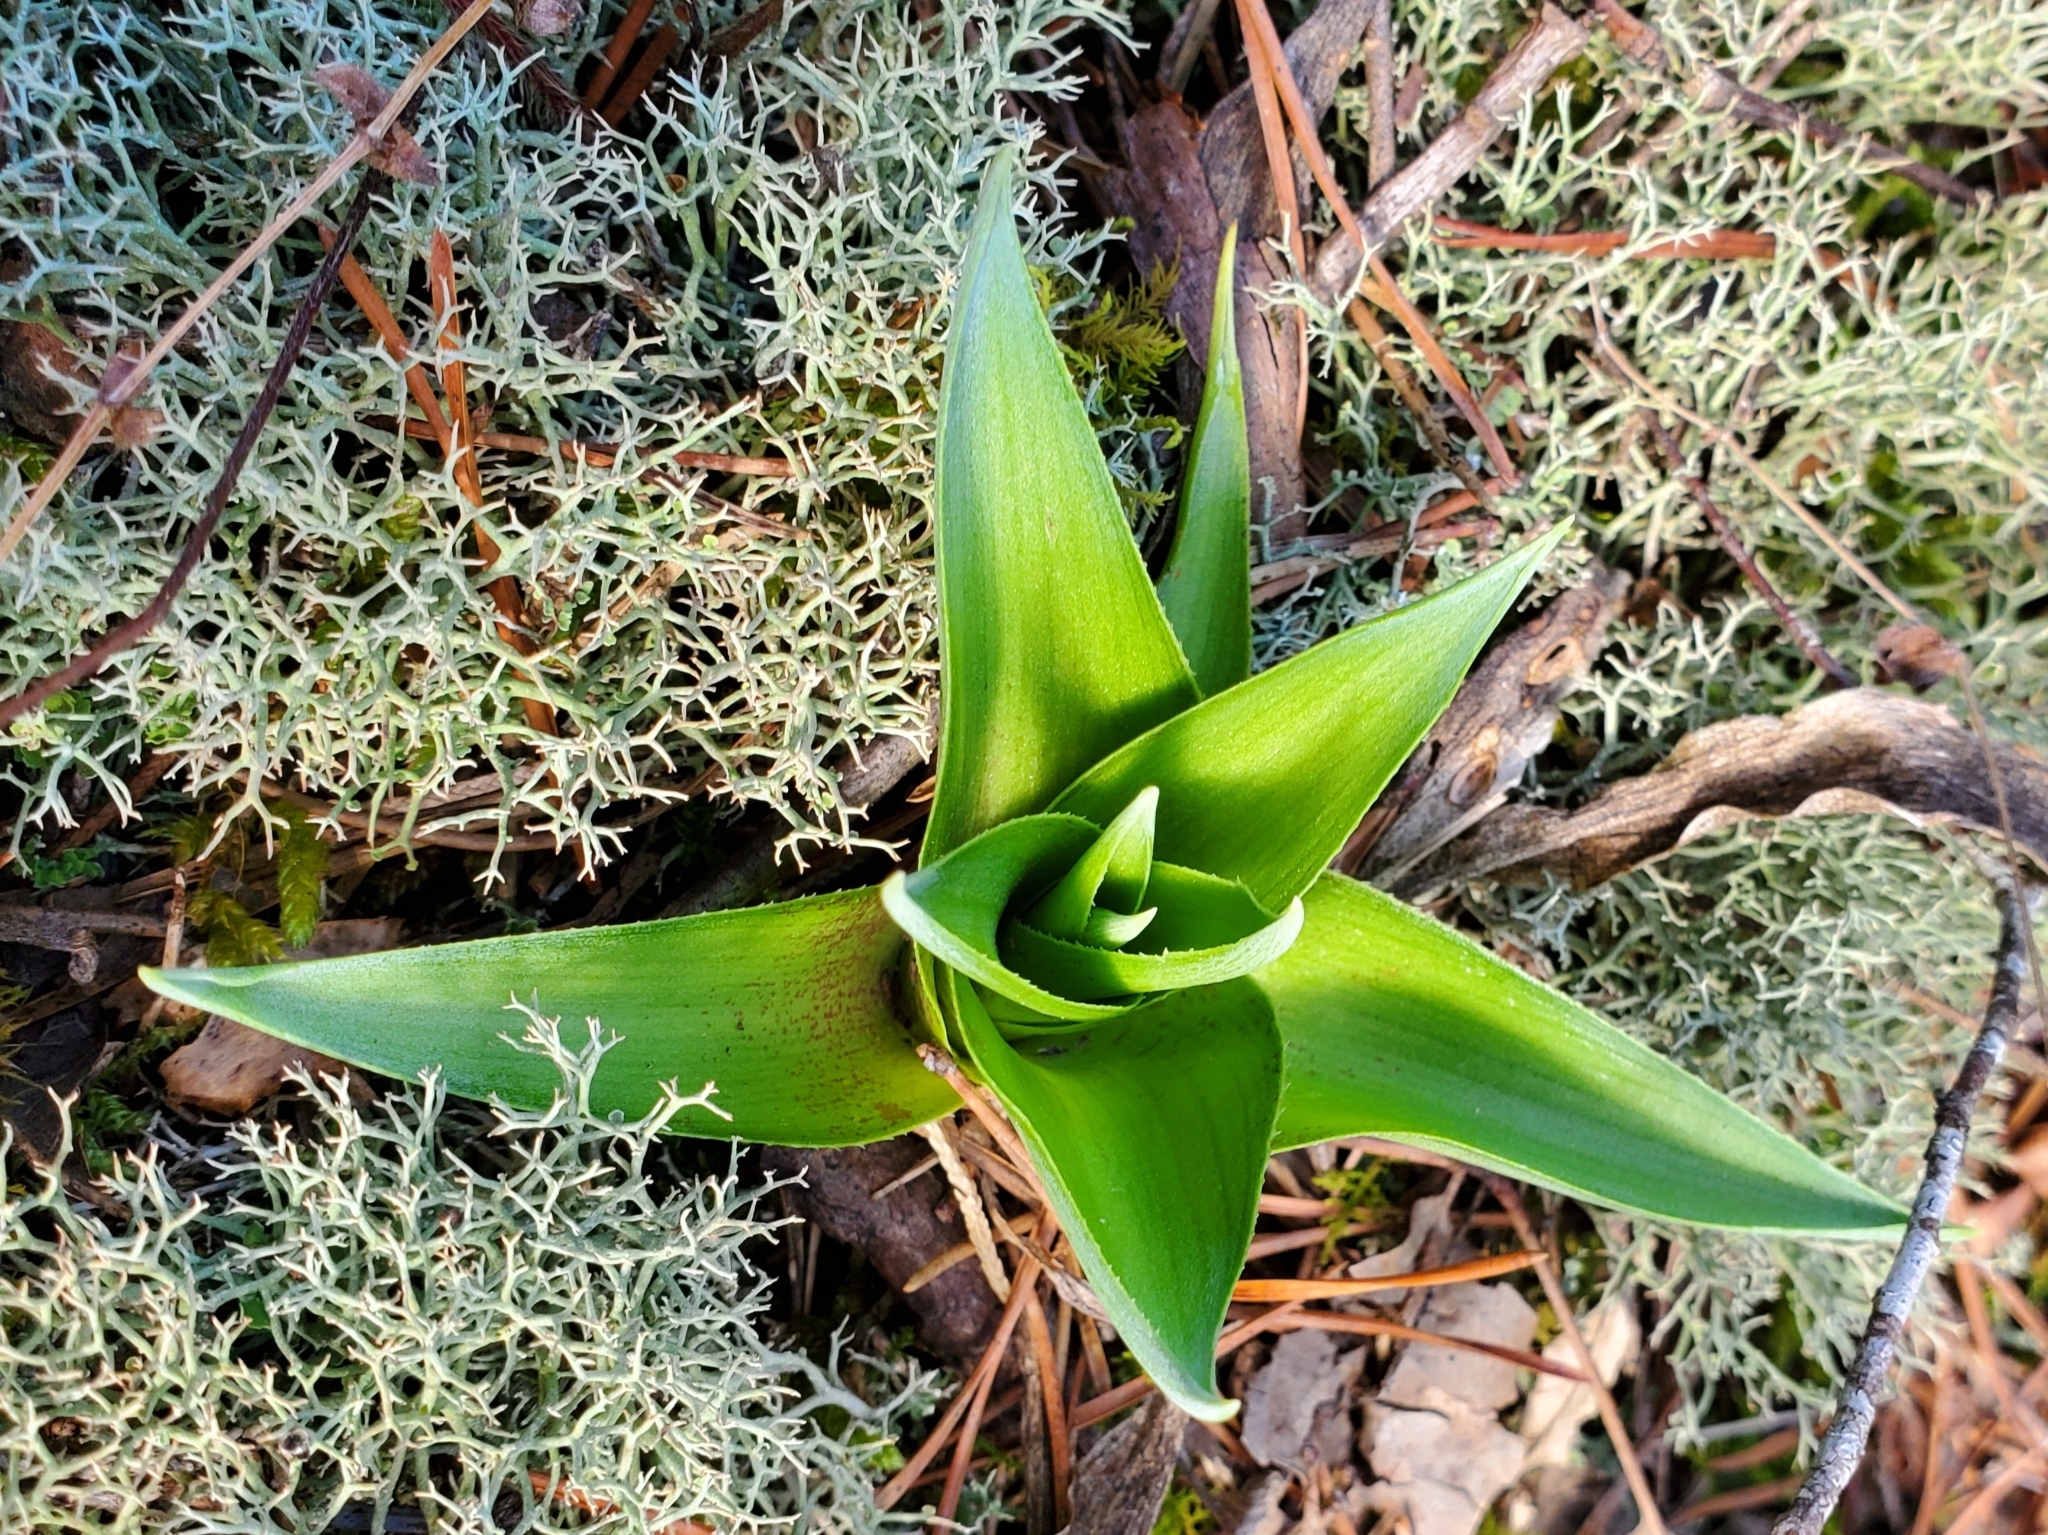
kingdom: Plantae
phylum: Tracheophyta
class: Liliopsida
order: Asparagales
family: Asparagaceae
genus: Agave
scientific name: Agave virginica
